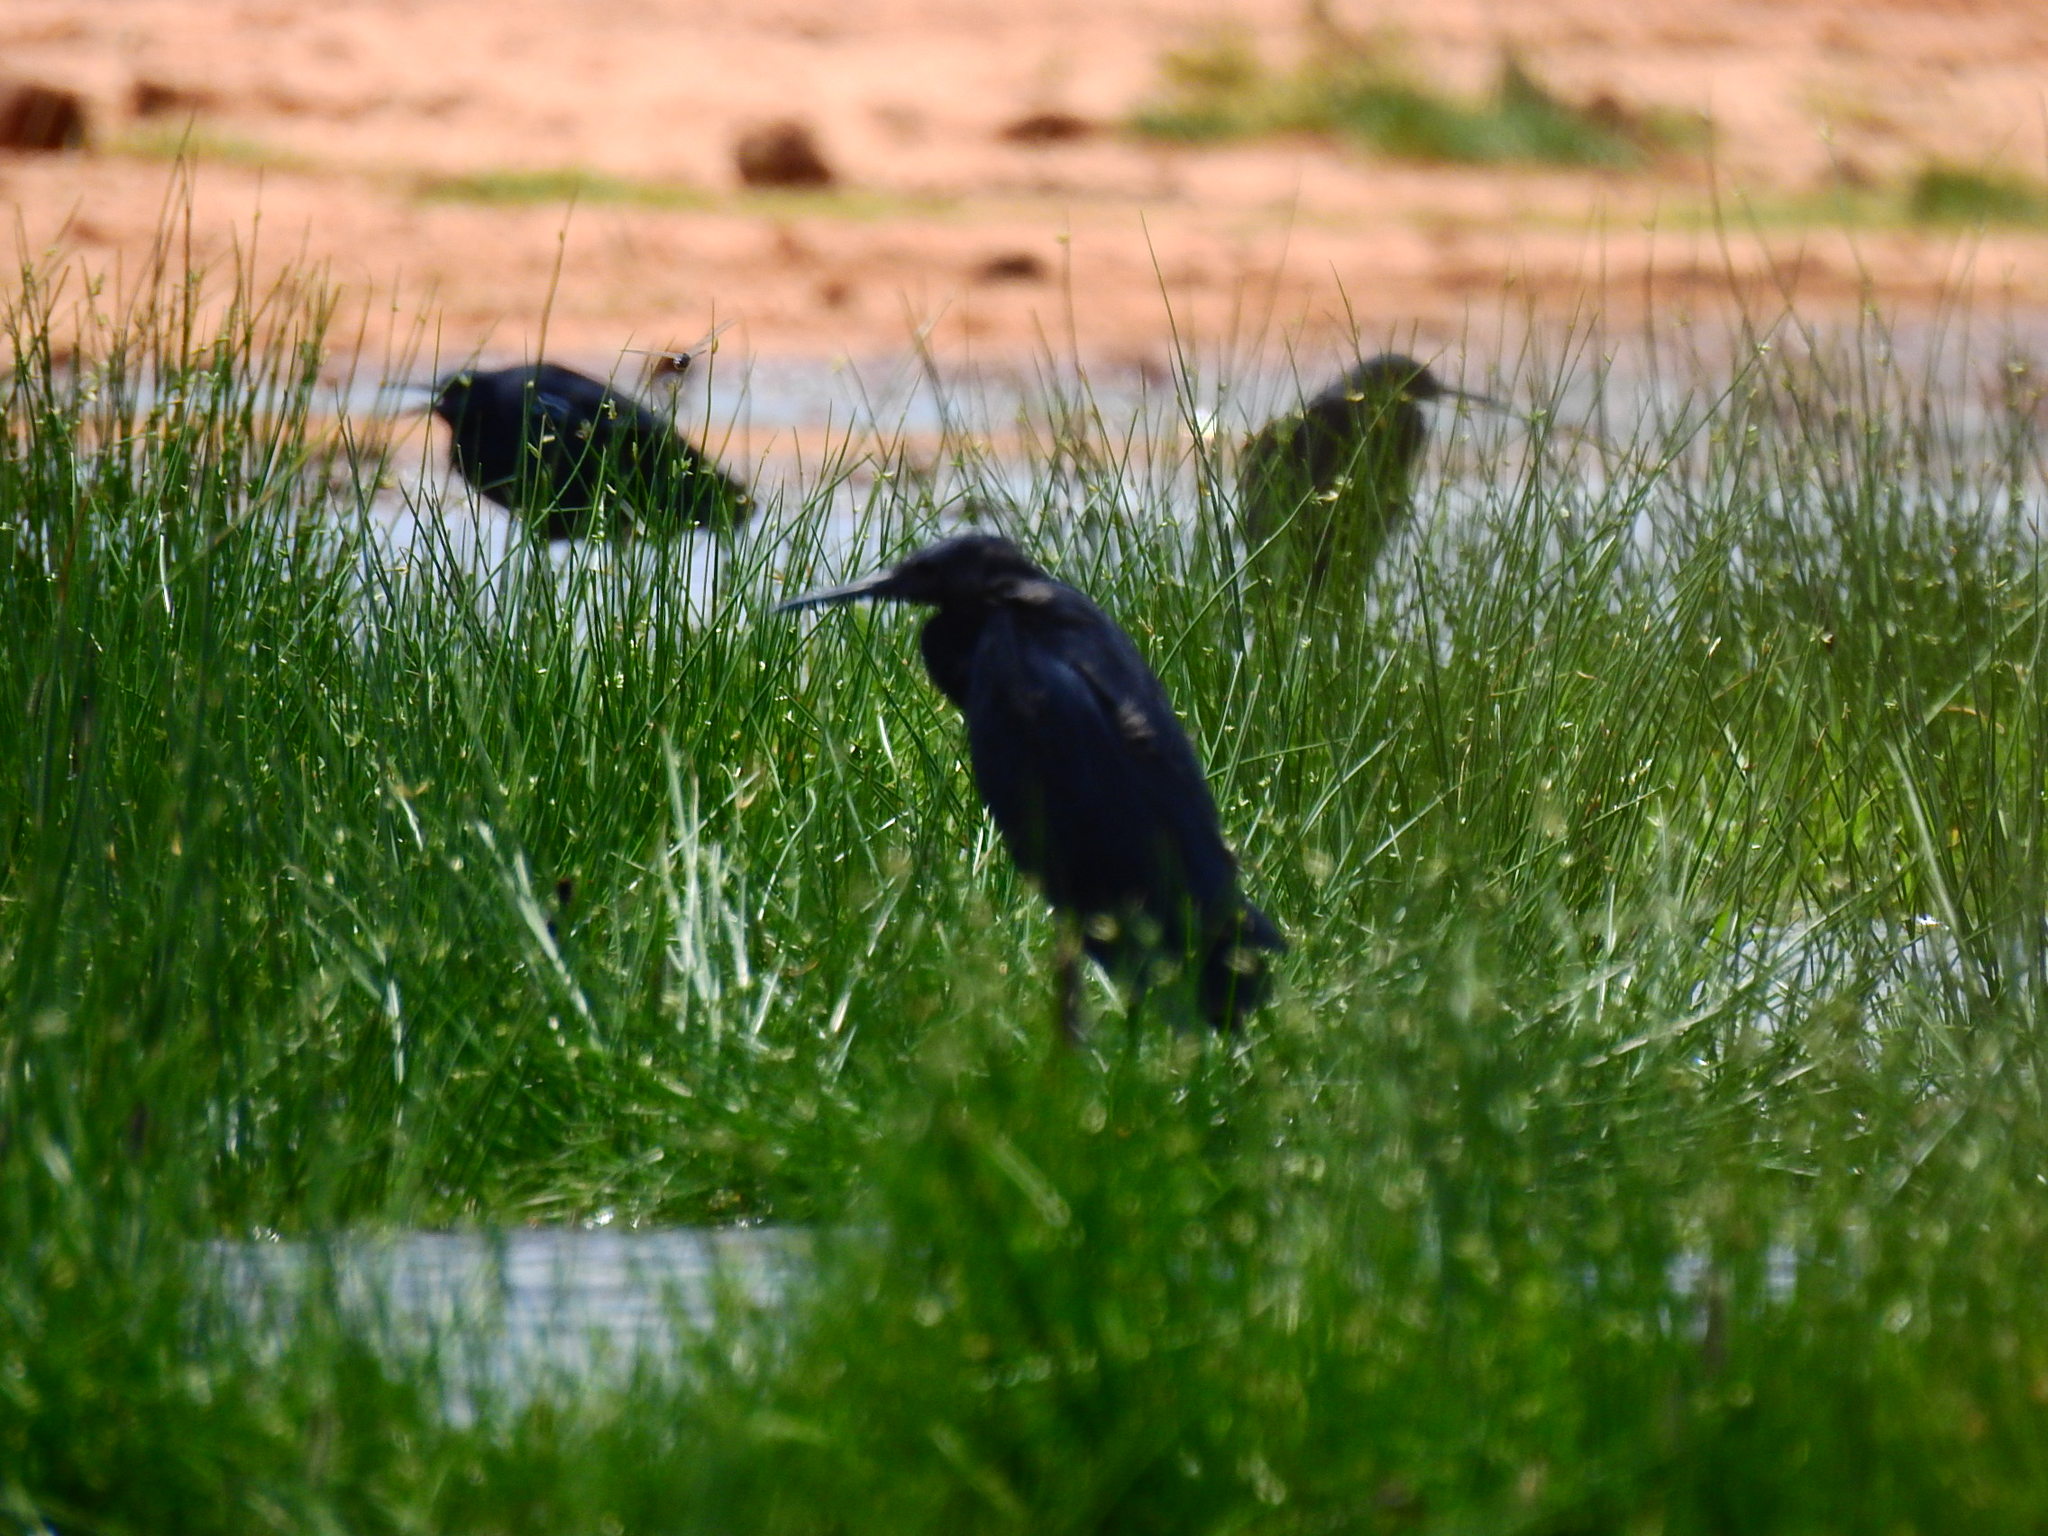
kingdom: Animalia
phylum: Chordata
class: Aves
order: Pelecaniformes
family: Ardeidae
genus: Egretta
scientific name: Egretta ardesiaca
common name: Black heron
